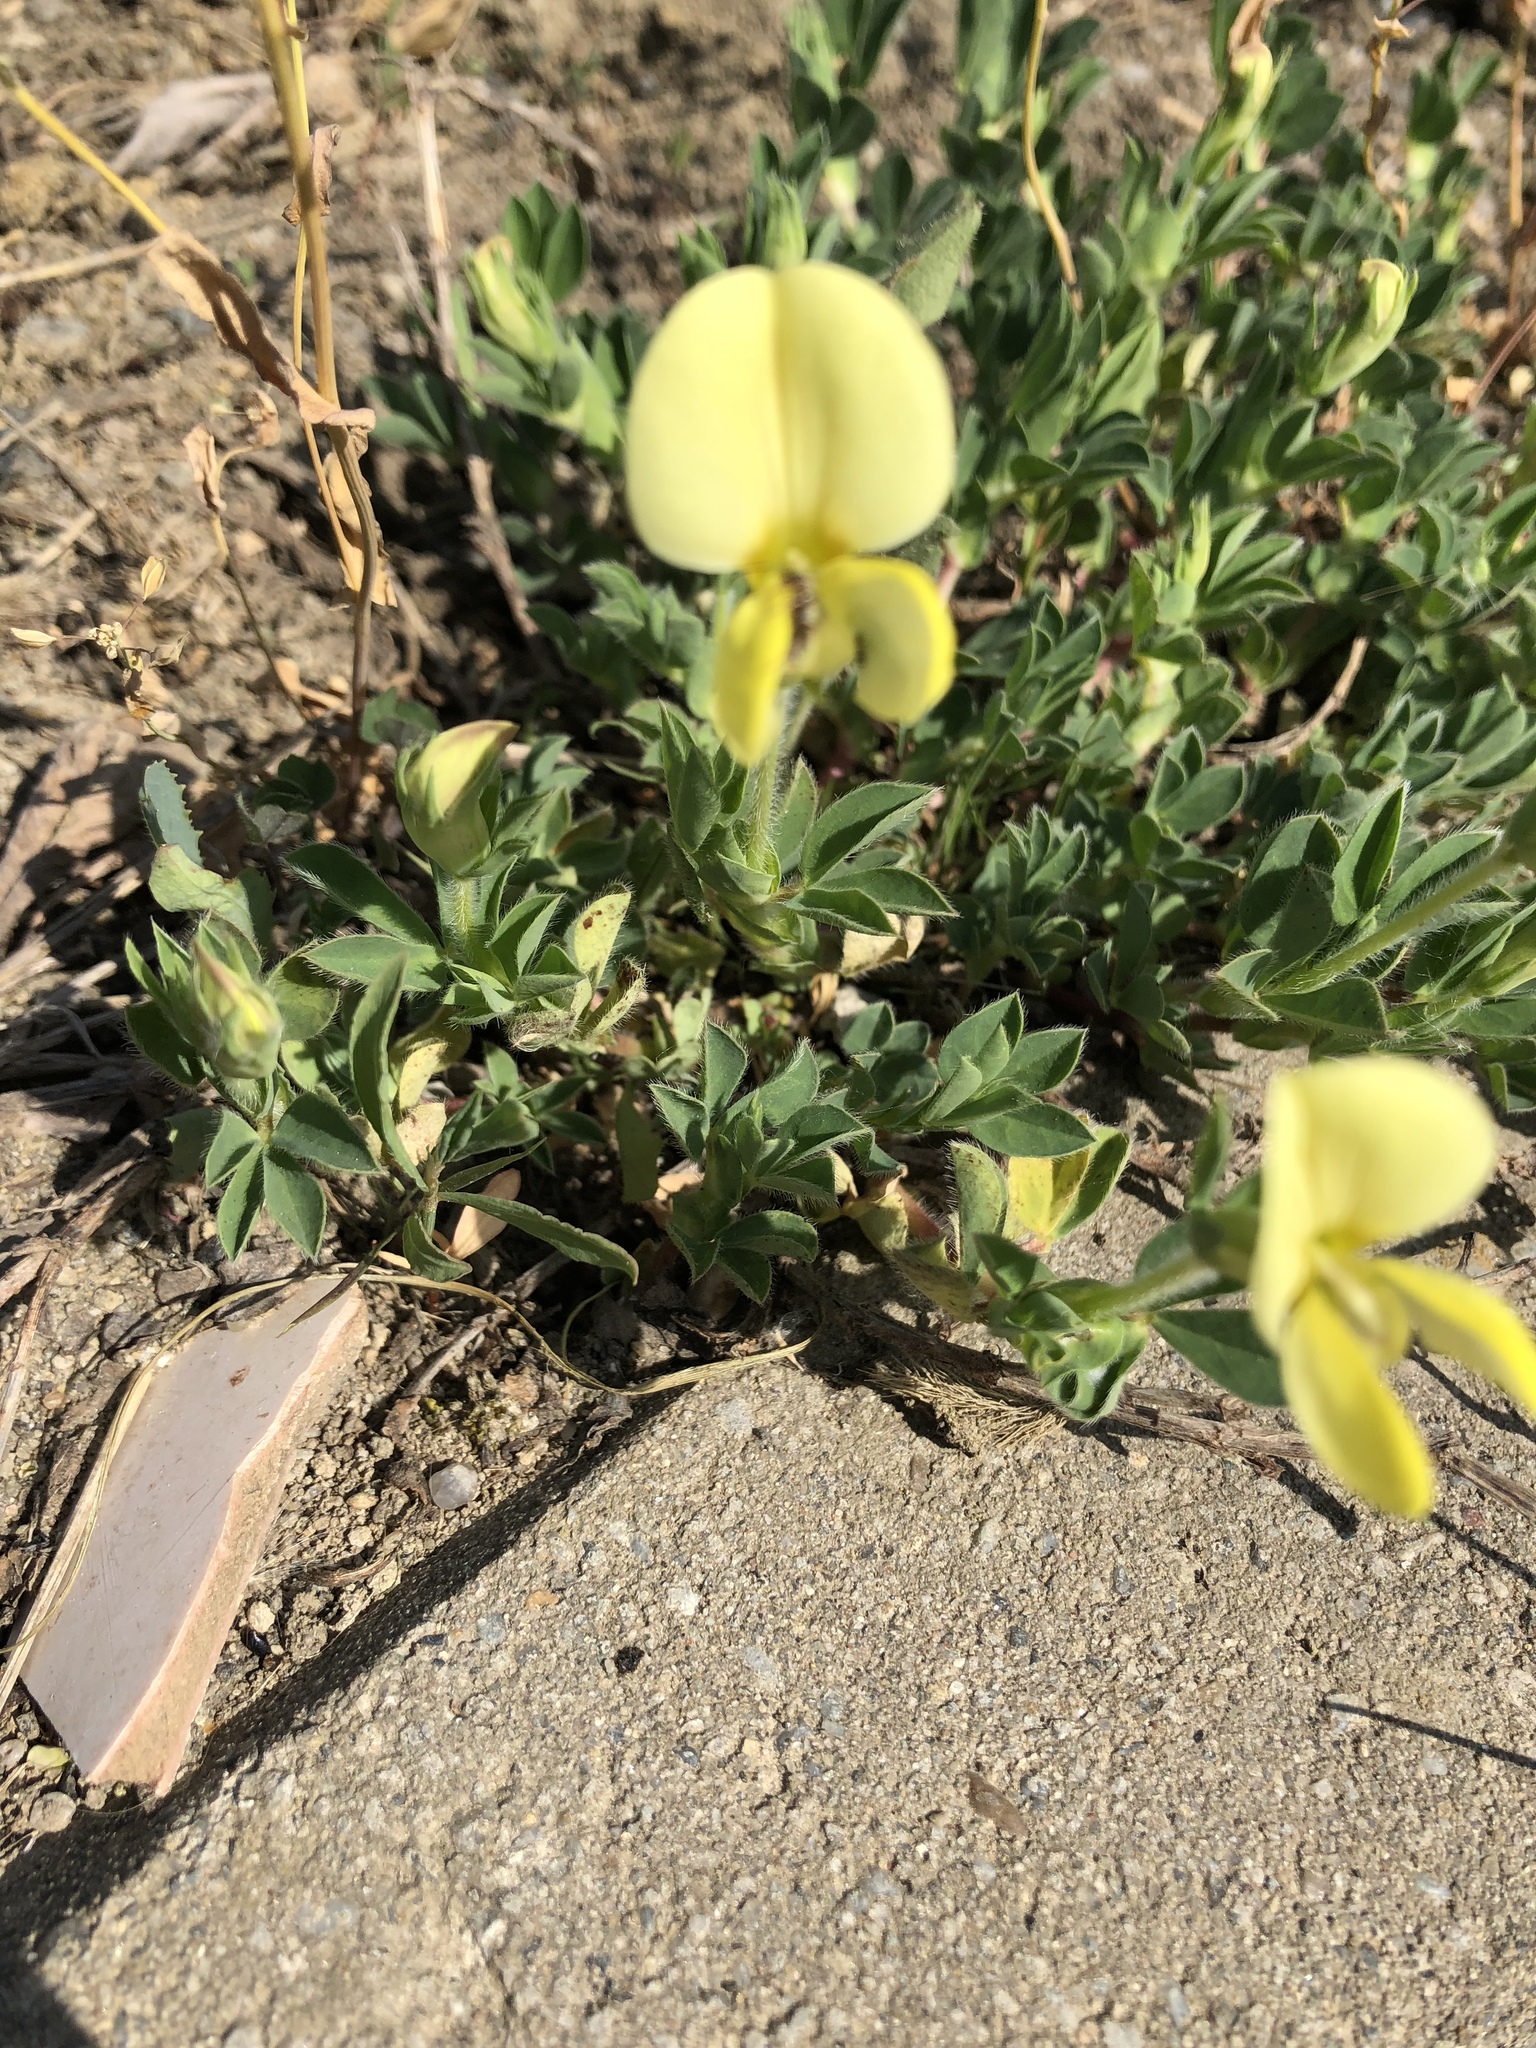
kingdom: Plantae
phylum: Tracheophyta
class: Magnoliopsida
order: Fabales
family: Fabaceae
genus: Lotus
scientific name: Lotus maritimus
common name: Dragon's-teeth
